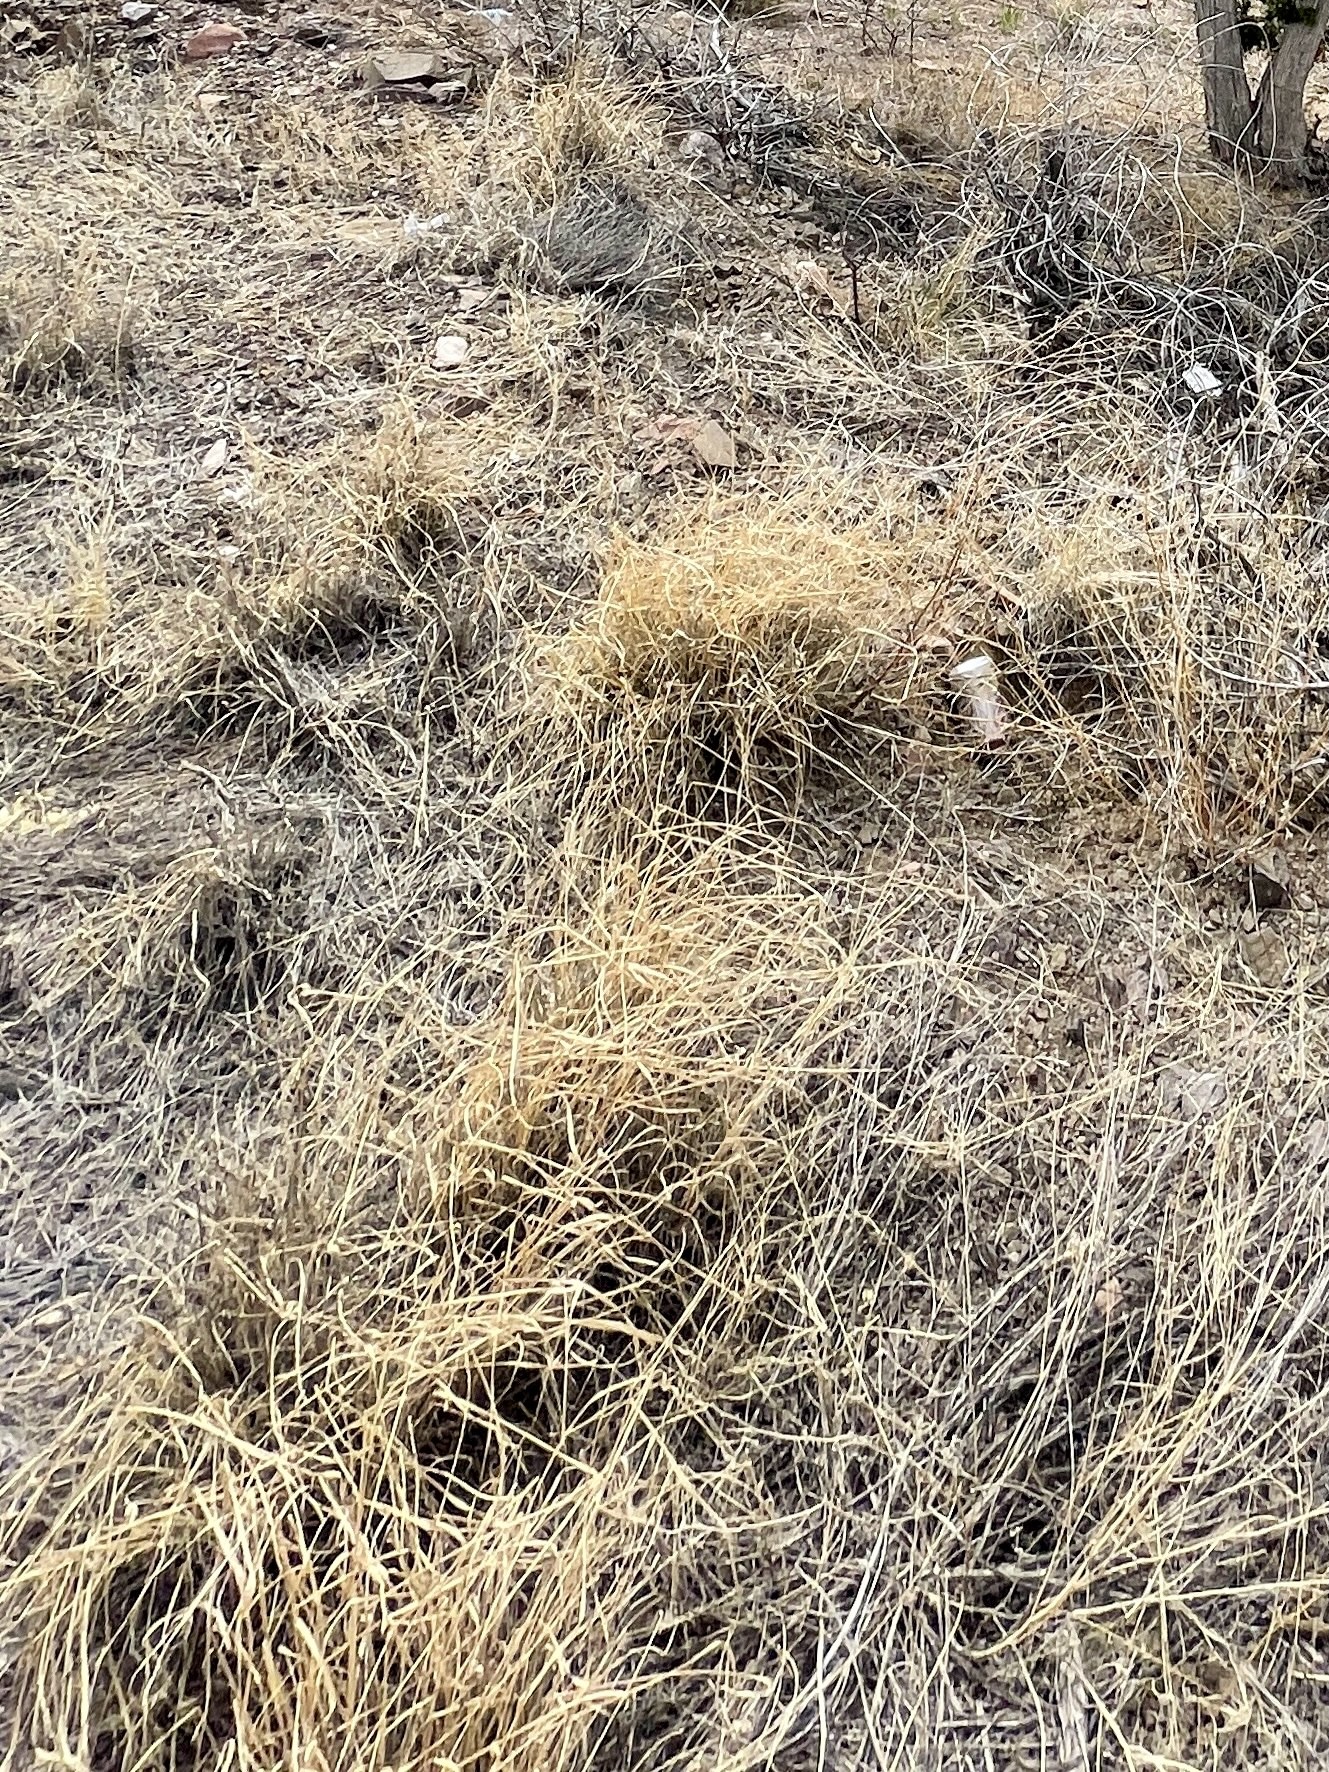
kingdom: Plantae
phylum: Tracheophyta
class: Liliopsida
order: Poales
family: Poaceae
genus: Sporobolus
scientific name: Sporobolus wrightii
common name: Big alkali sacaton
